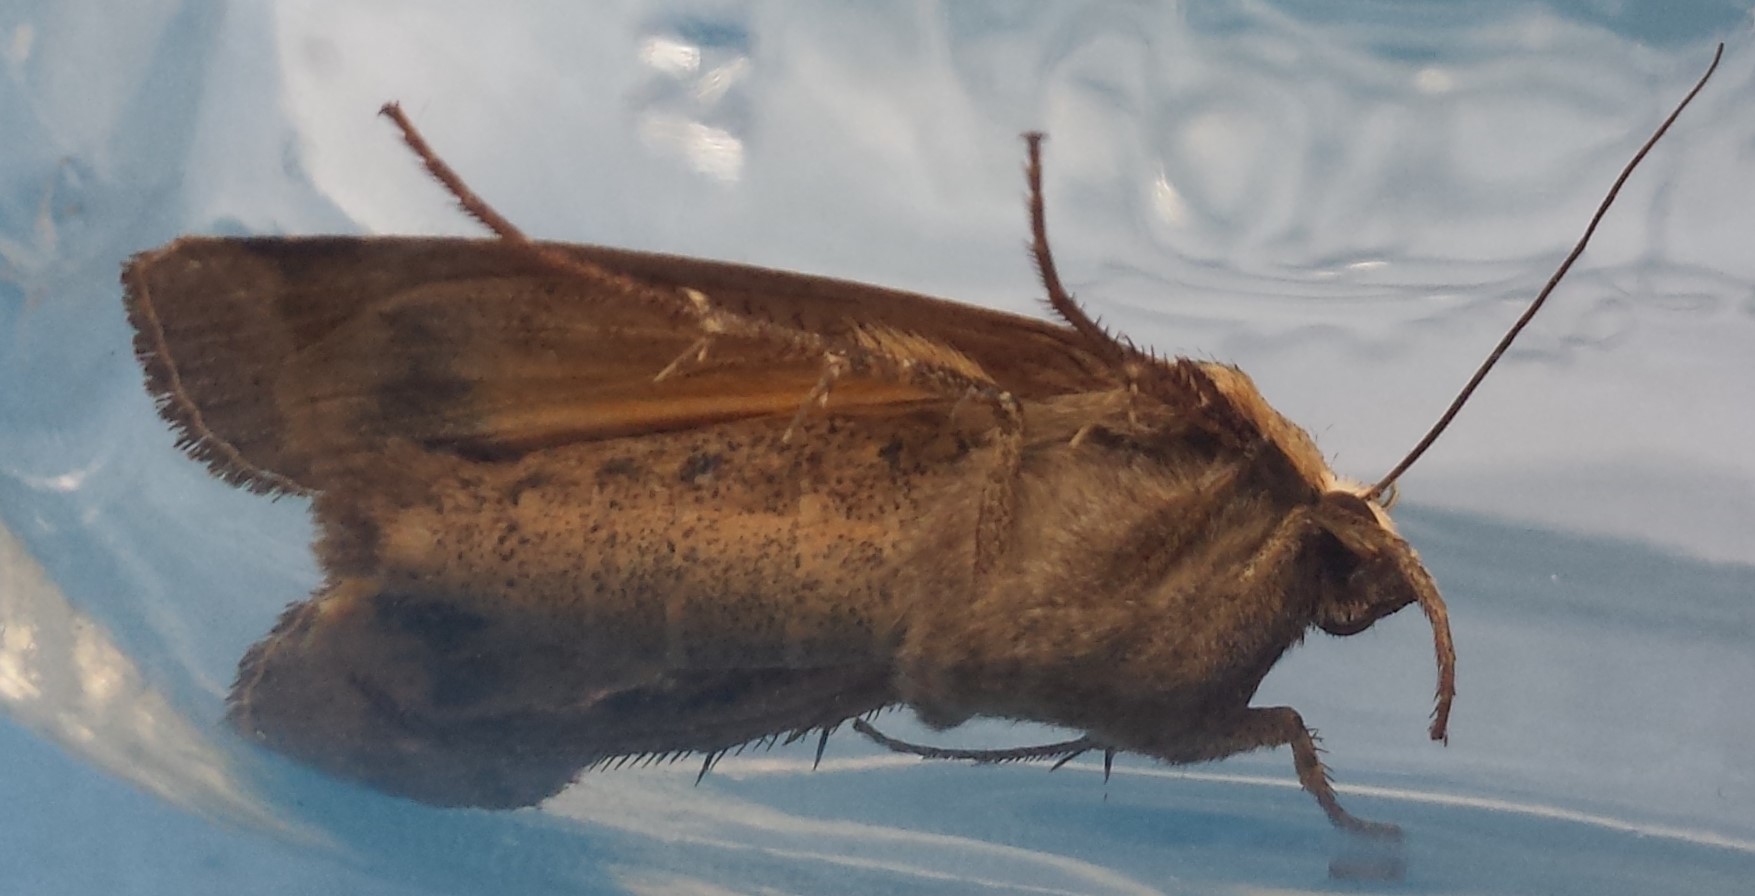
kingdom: Animalia
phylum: Arthropoda
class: Insecta
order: Lepidoptera
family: Noctuidae
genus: Noctua
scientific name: Noctua pronuba
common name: Large yellow underwing
